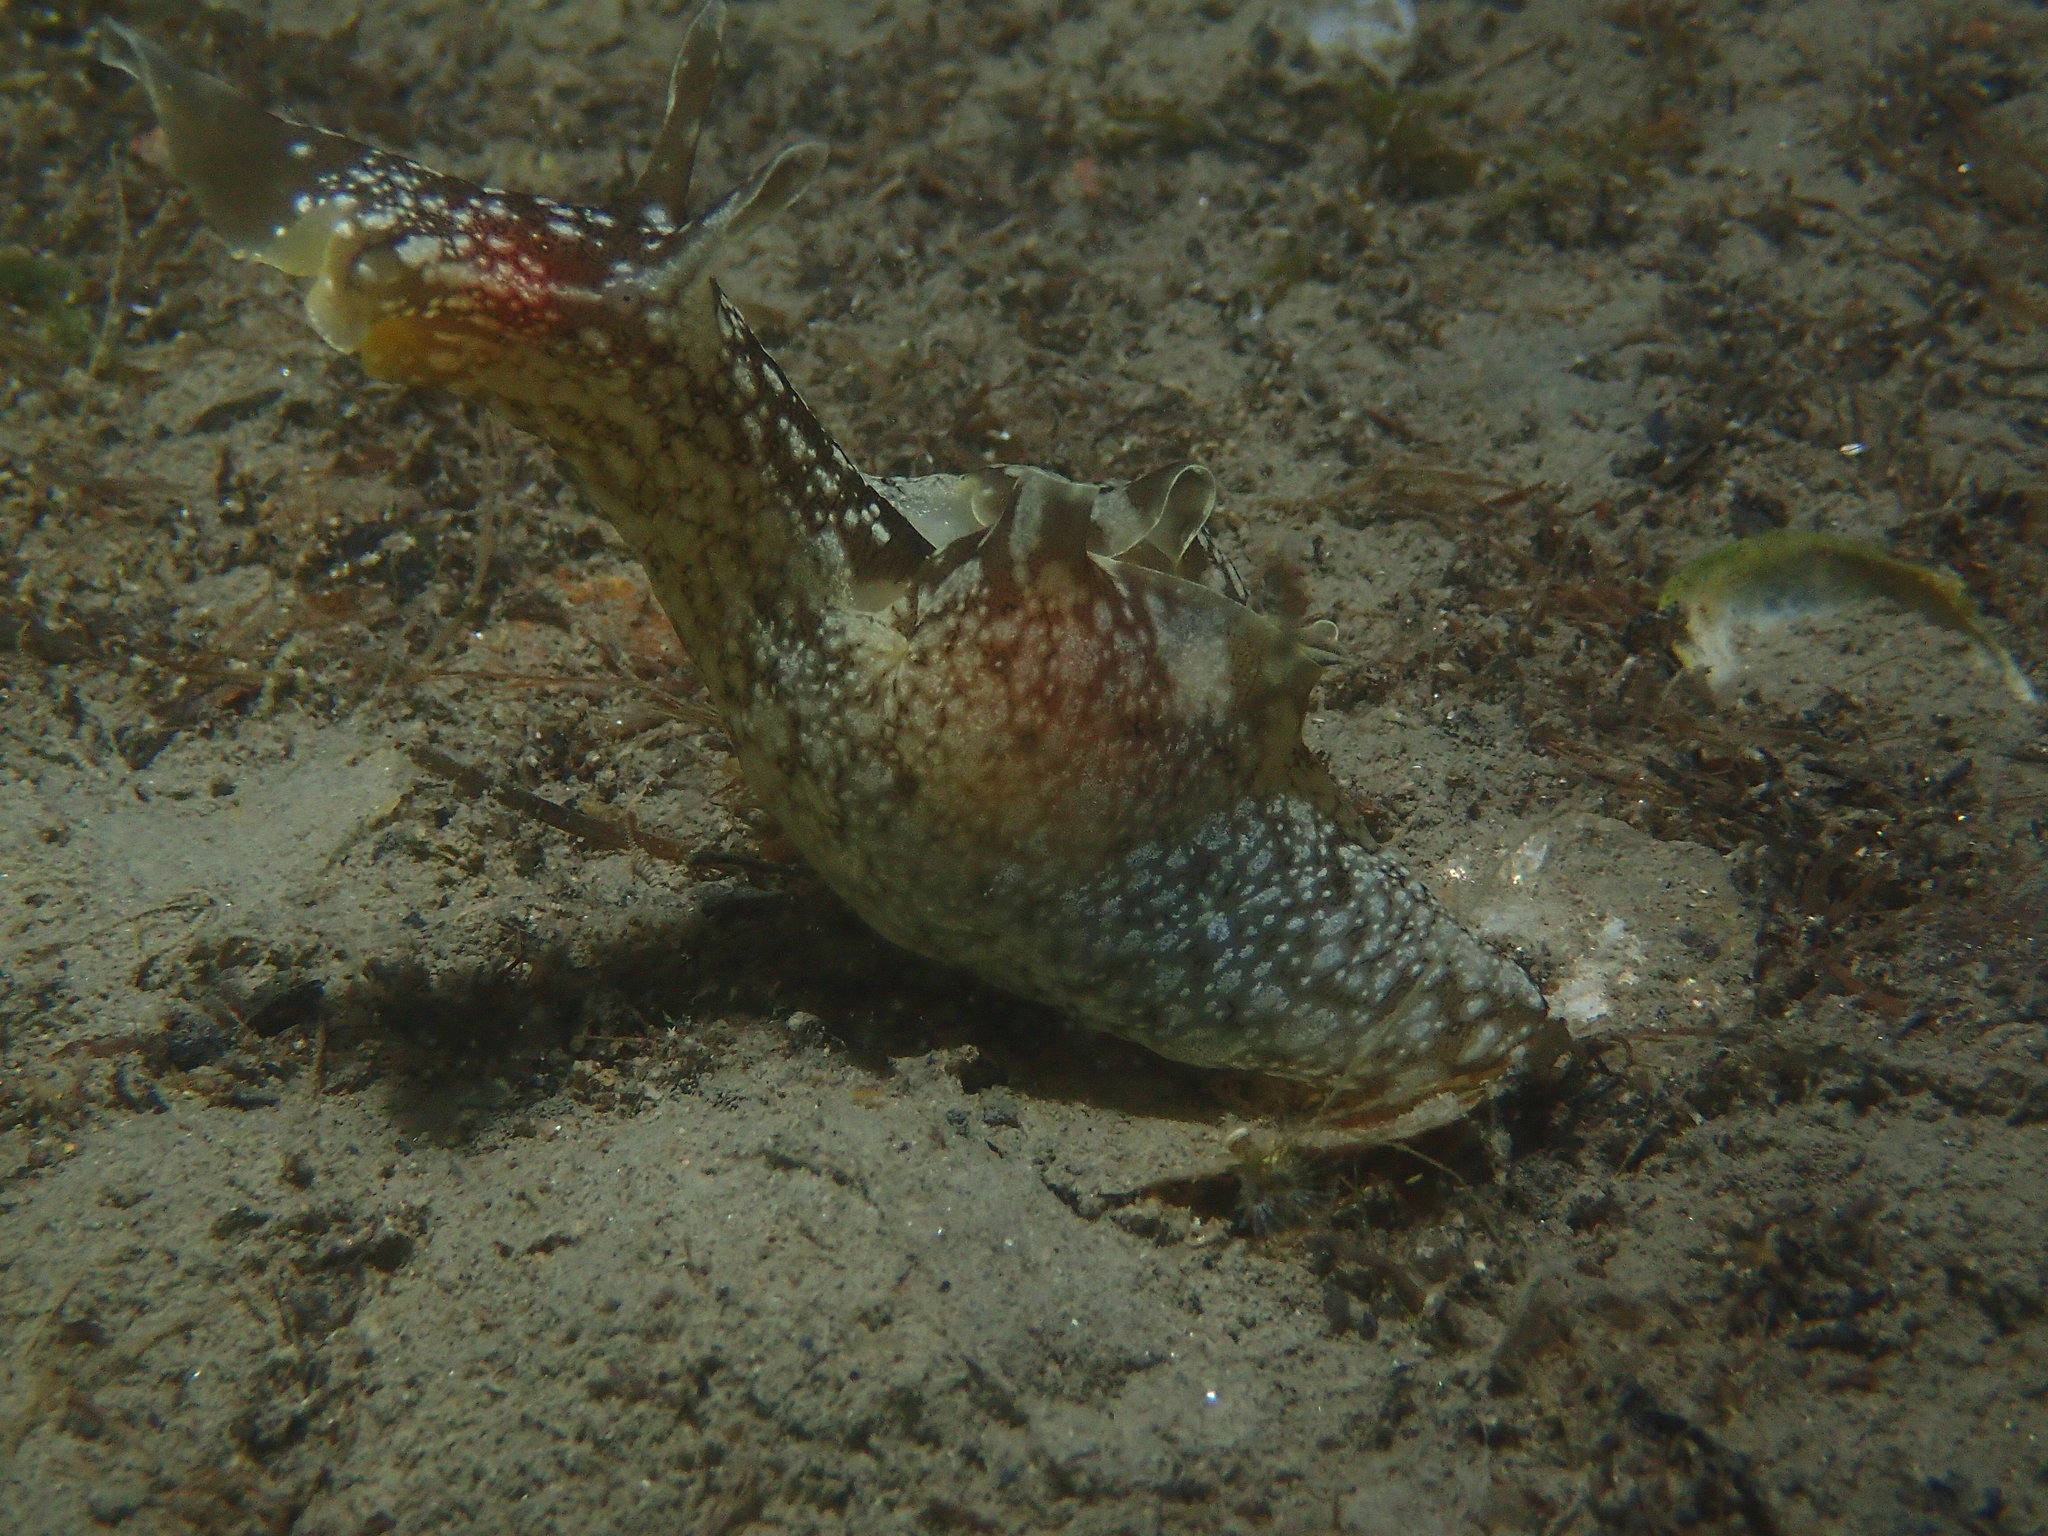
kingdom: Animalia
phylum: Mollusca
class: Gastropoda
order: Aplysiida
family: Aplysiidae
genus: Aplysia
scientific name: Aplysia punctata
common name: Common sea hare
